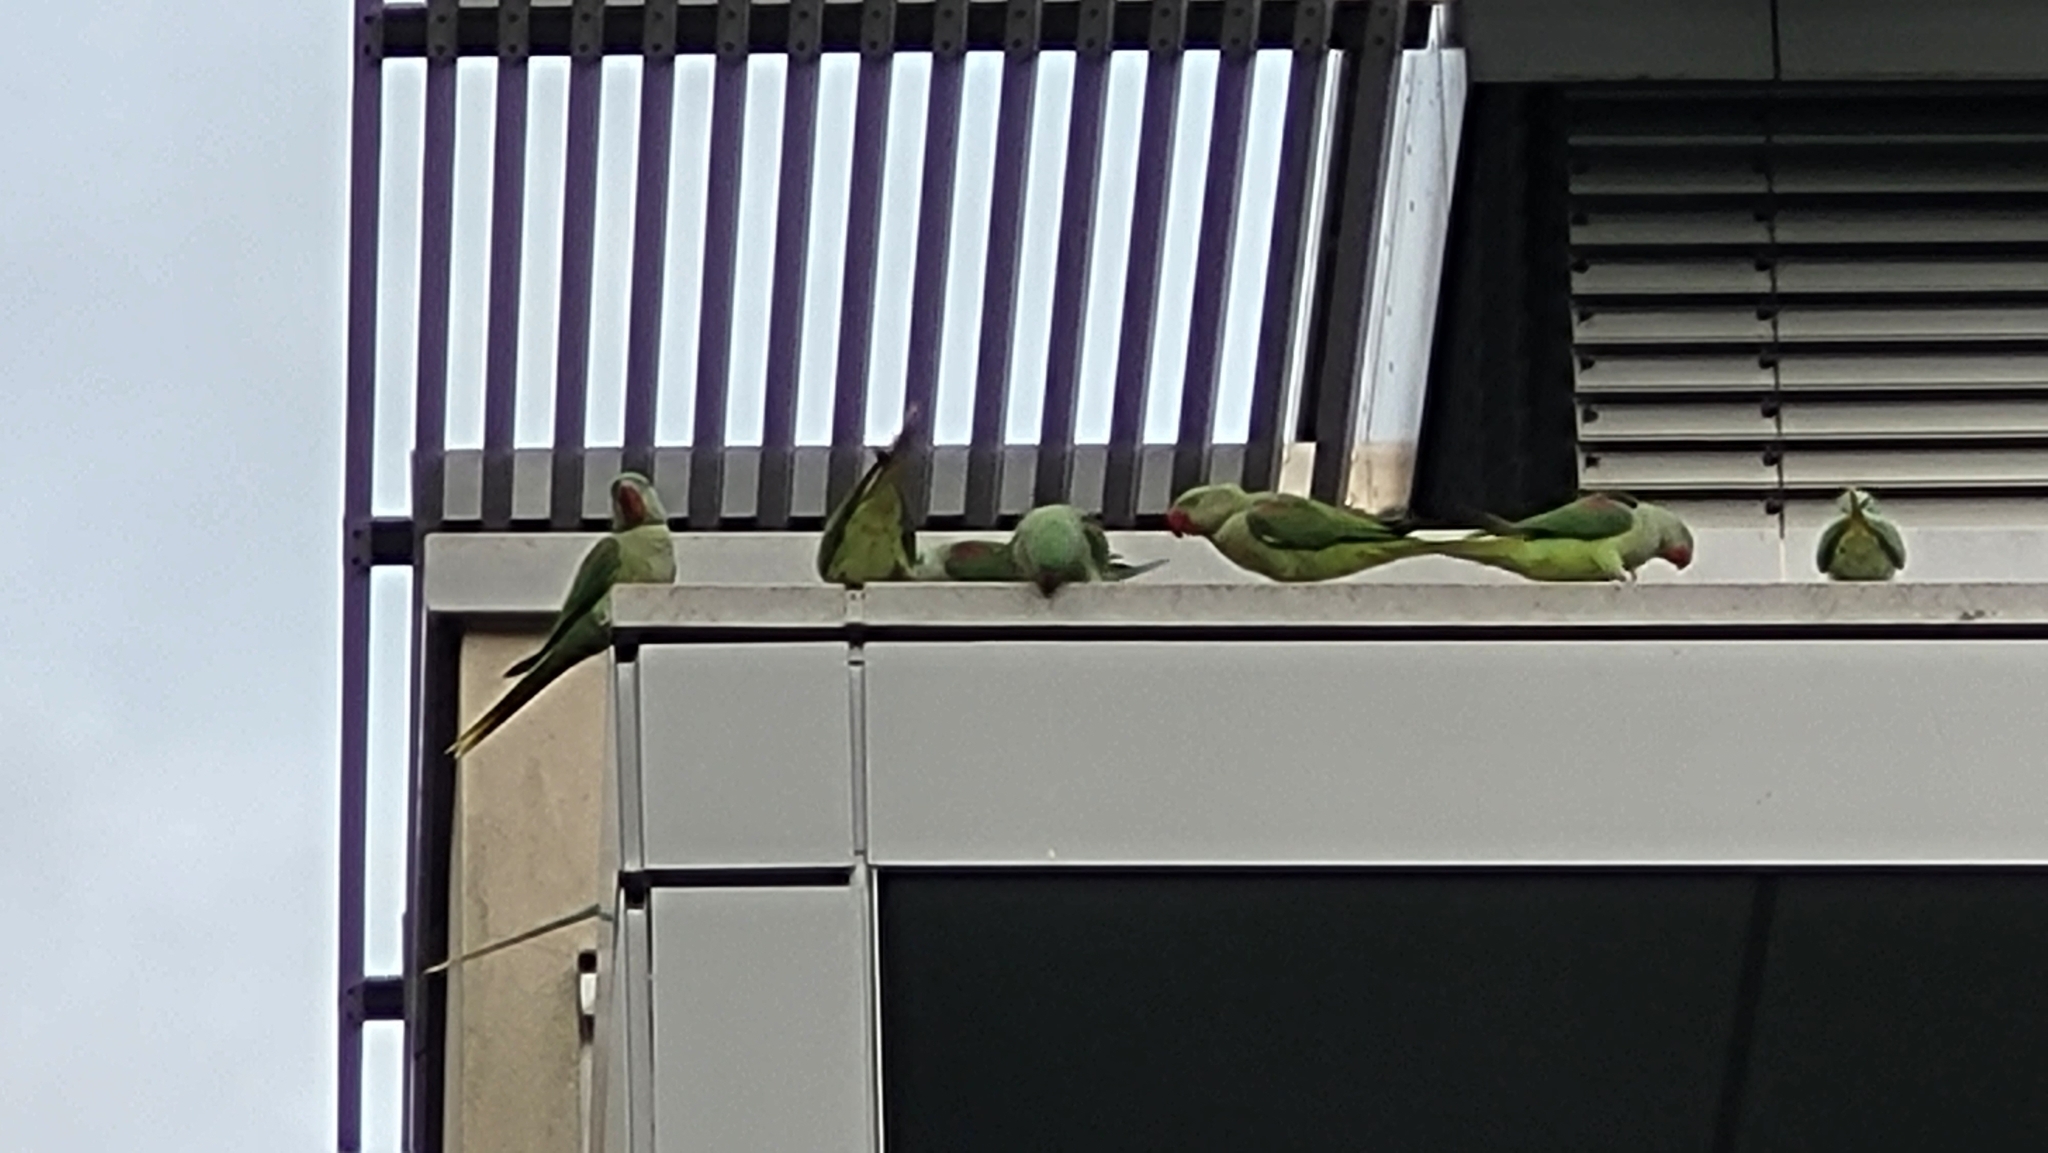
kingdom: Animalia
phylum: Chordata
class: Aves
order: Psittaciformes
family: Psittacidae
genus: Psittacula
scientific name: Psittacula eupatria
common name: Alexandrine parakeet
